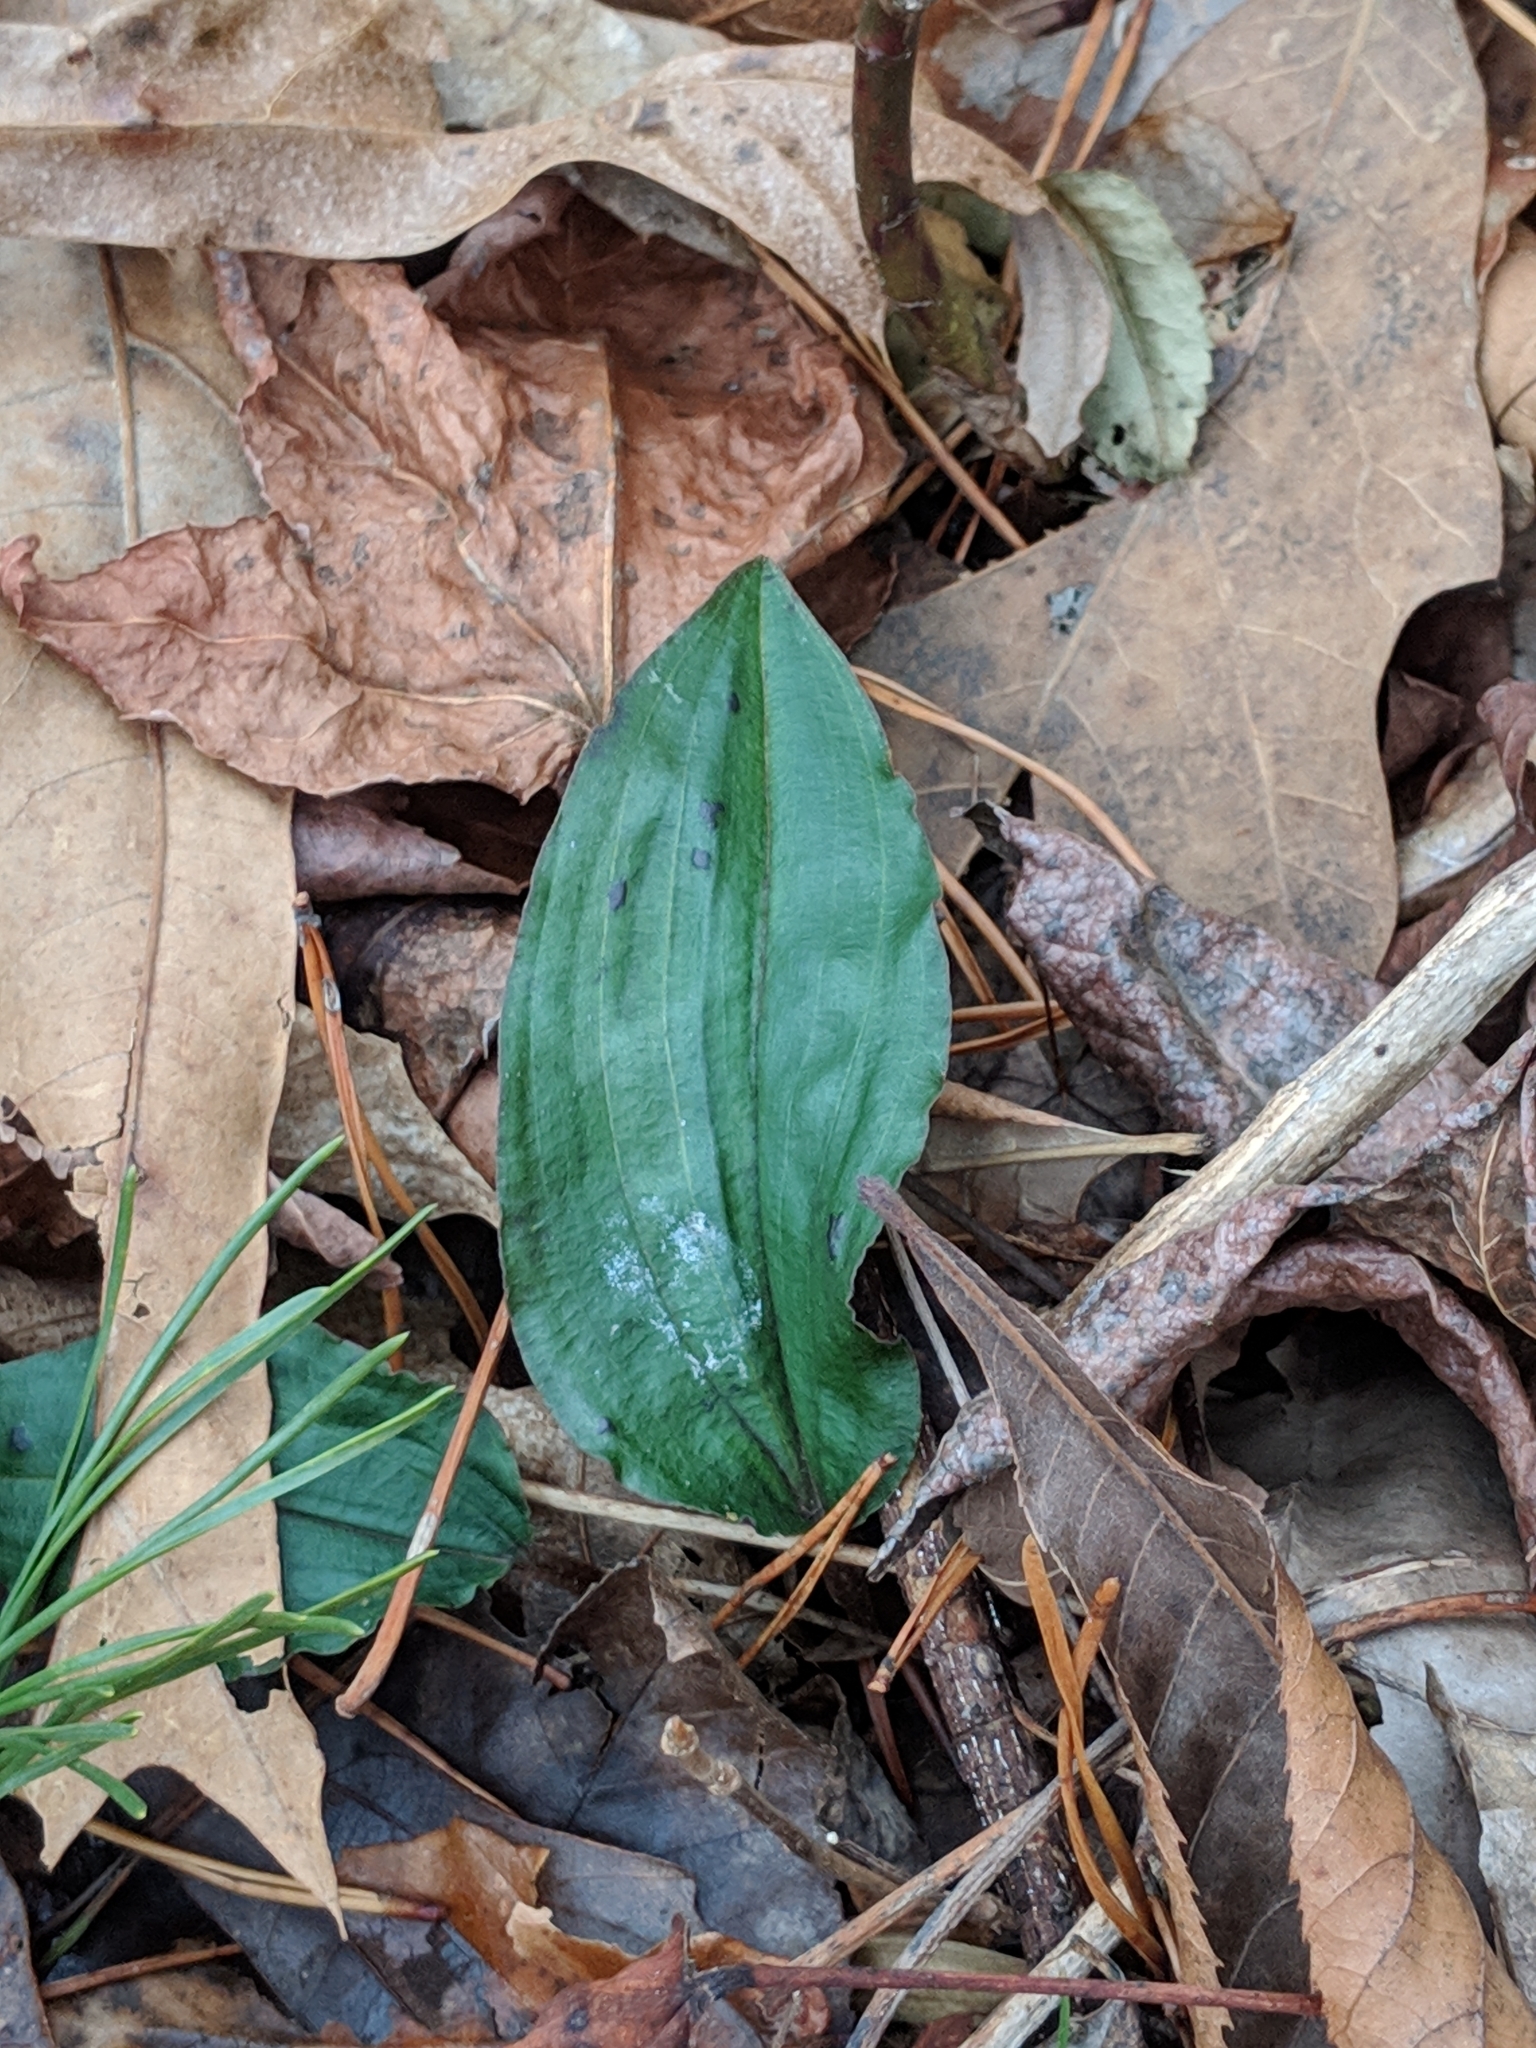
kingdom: Plantae
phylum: Tracheophyta
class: Liliopsida
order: Asparagales
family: Orchidaceae
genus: Tipularia
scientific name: Tipularia discolor
